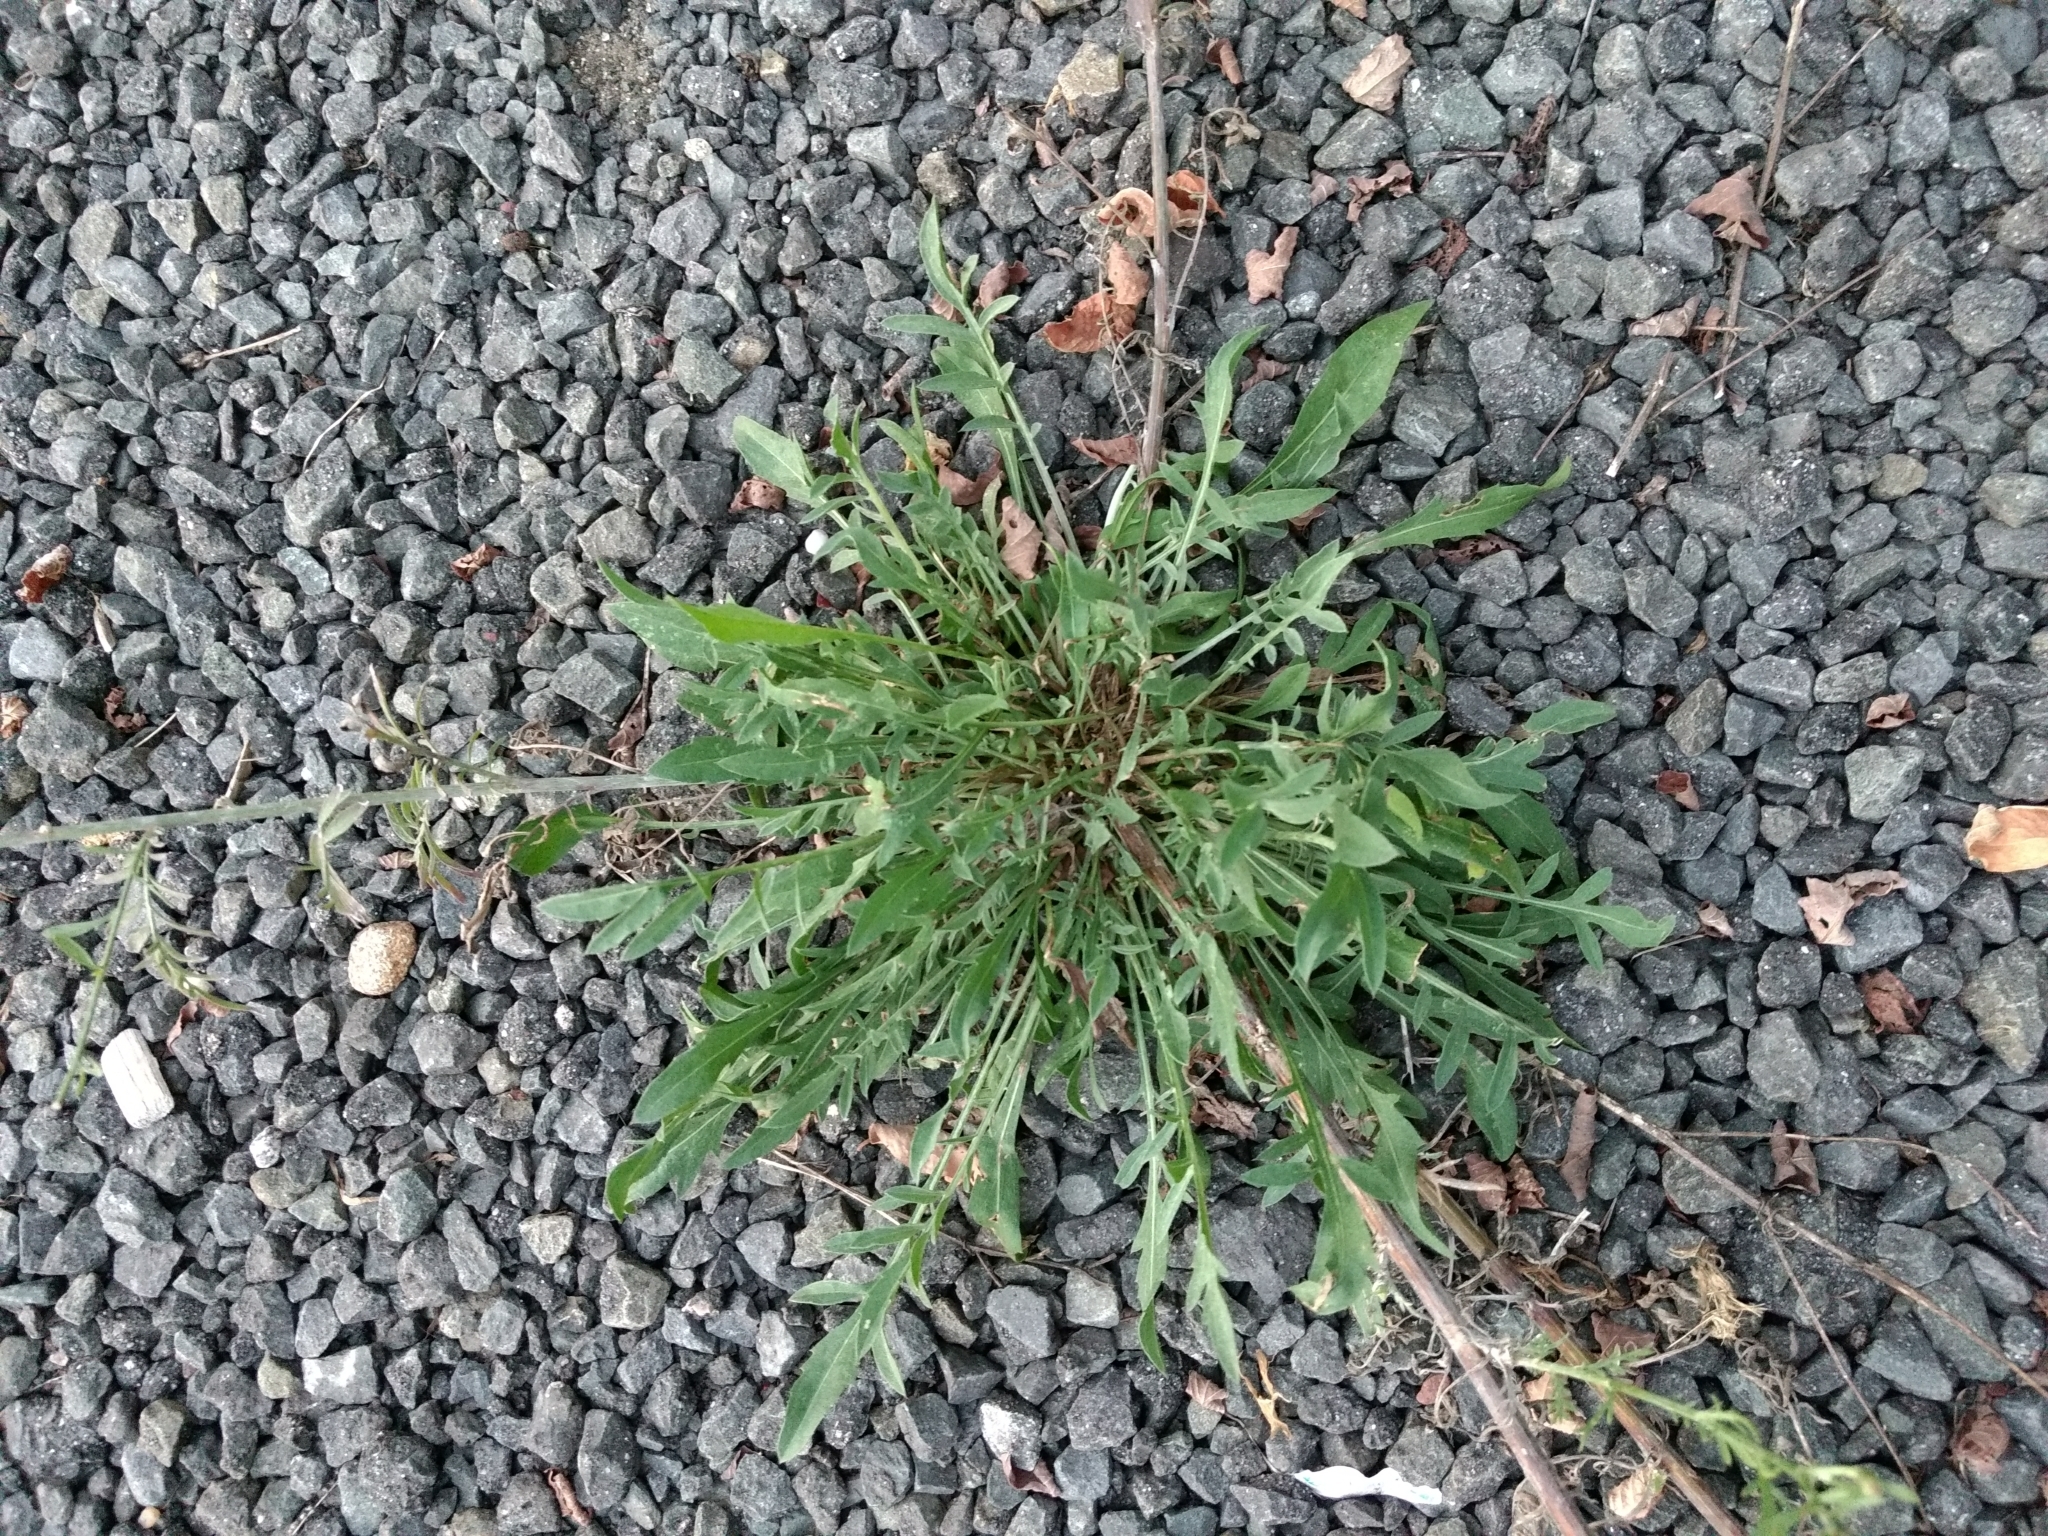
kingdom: Plantae
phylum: Tracheophyta
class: Magnoliopsida
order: Asterales
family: Asteraceae
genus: Centaurea
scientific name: Centaurea stoebe
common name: Spotted knapweed
